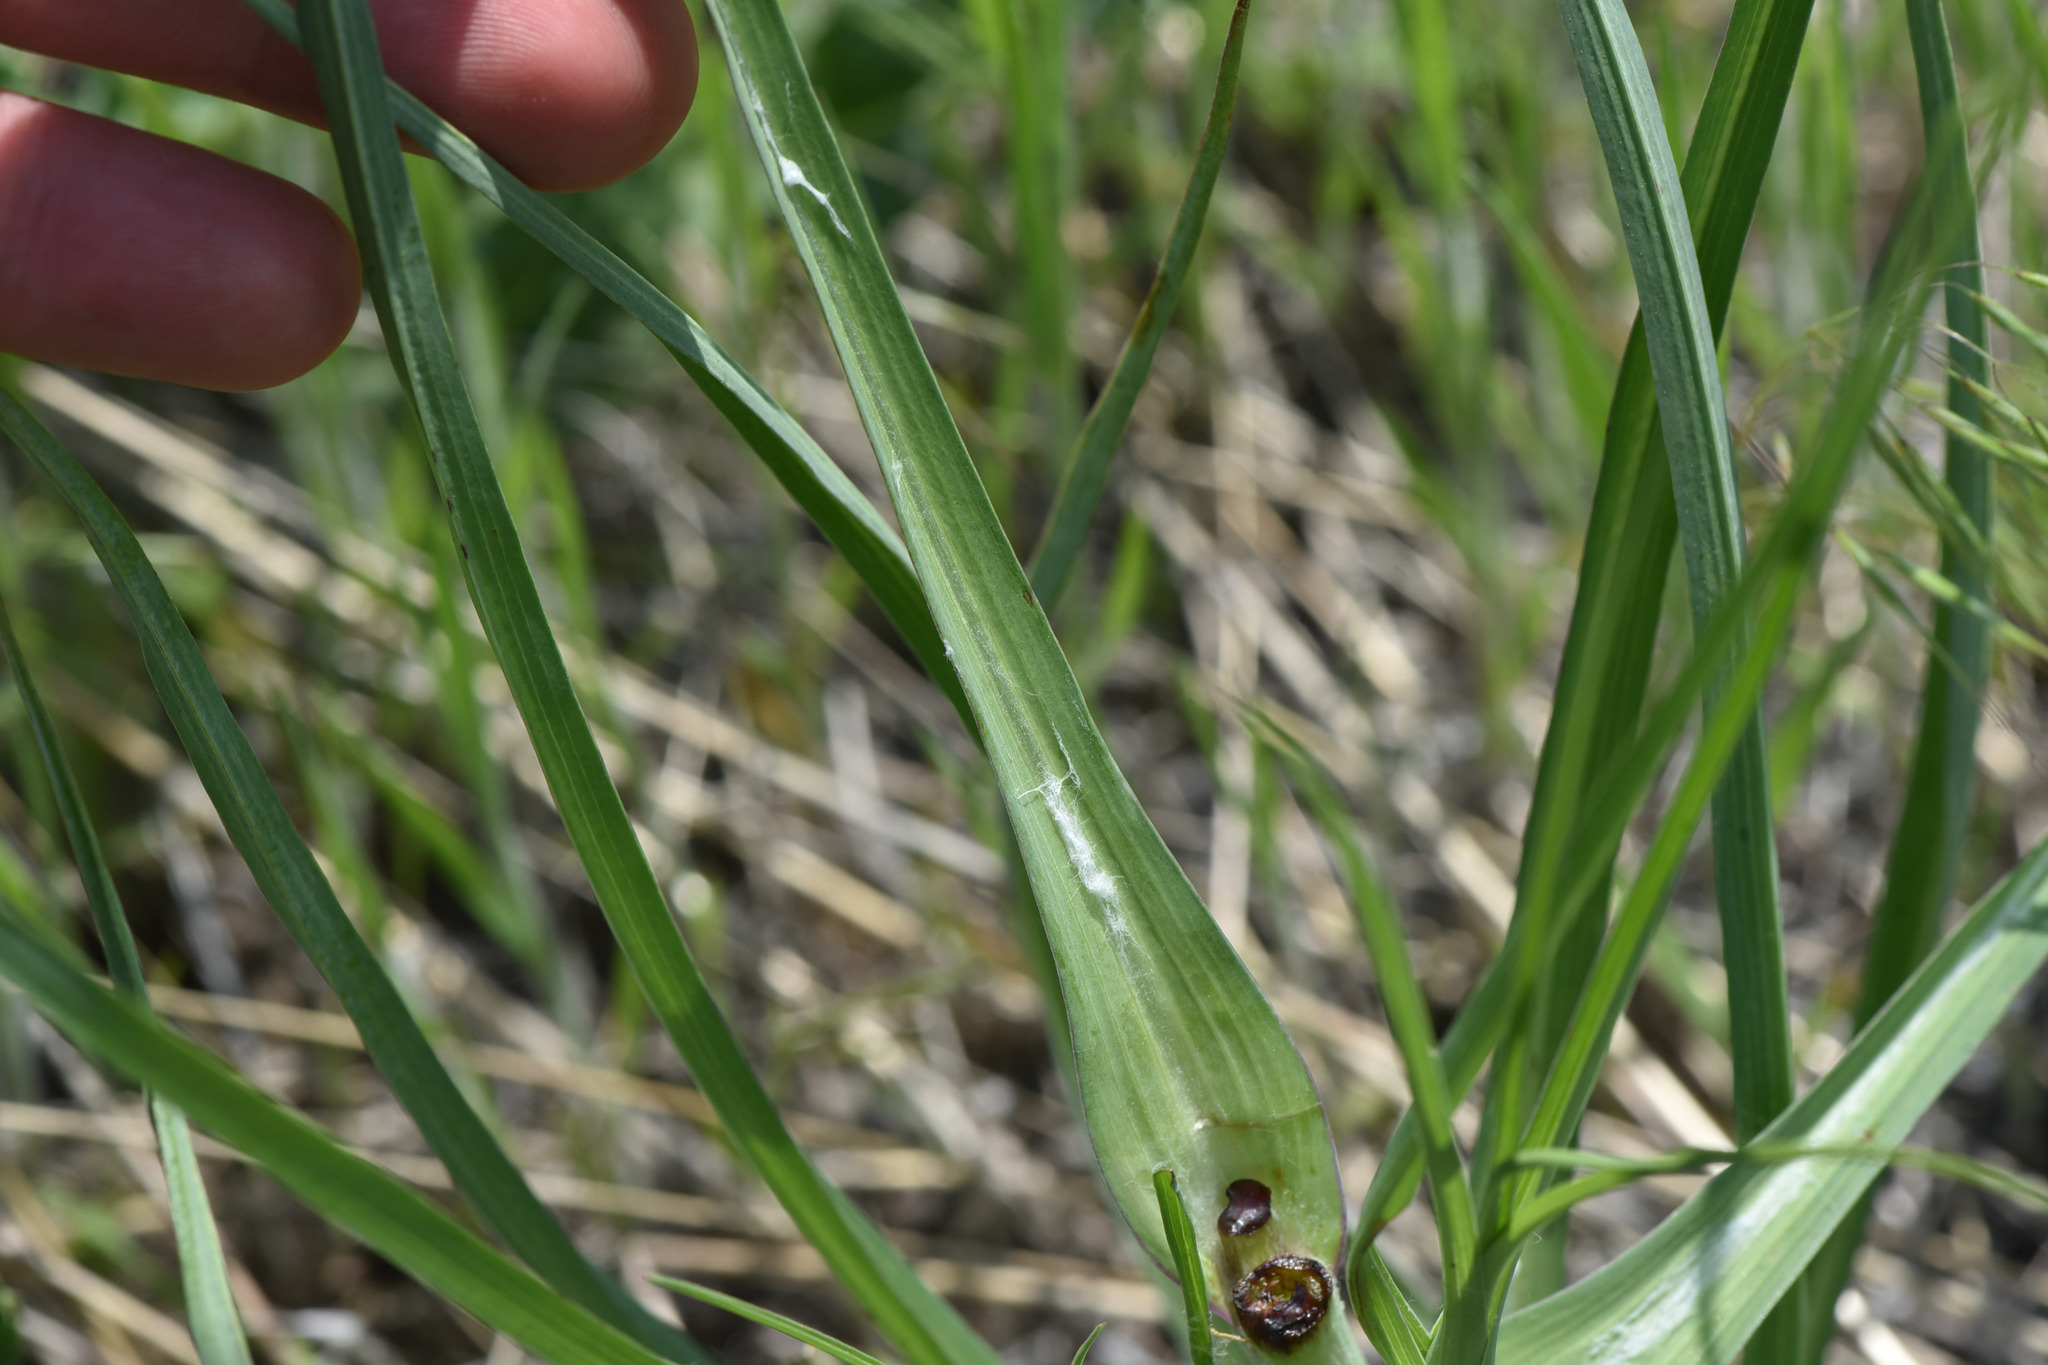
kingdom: Plantae
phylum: Tracheophyta
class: Magnoliopsida
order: Asterales
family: Asteraceae
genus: Tragopogon
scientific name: Tragopogon dubius
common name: Yellow salsify
